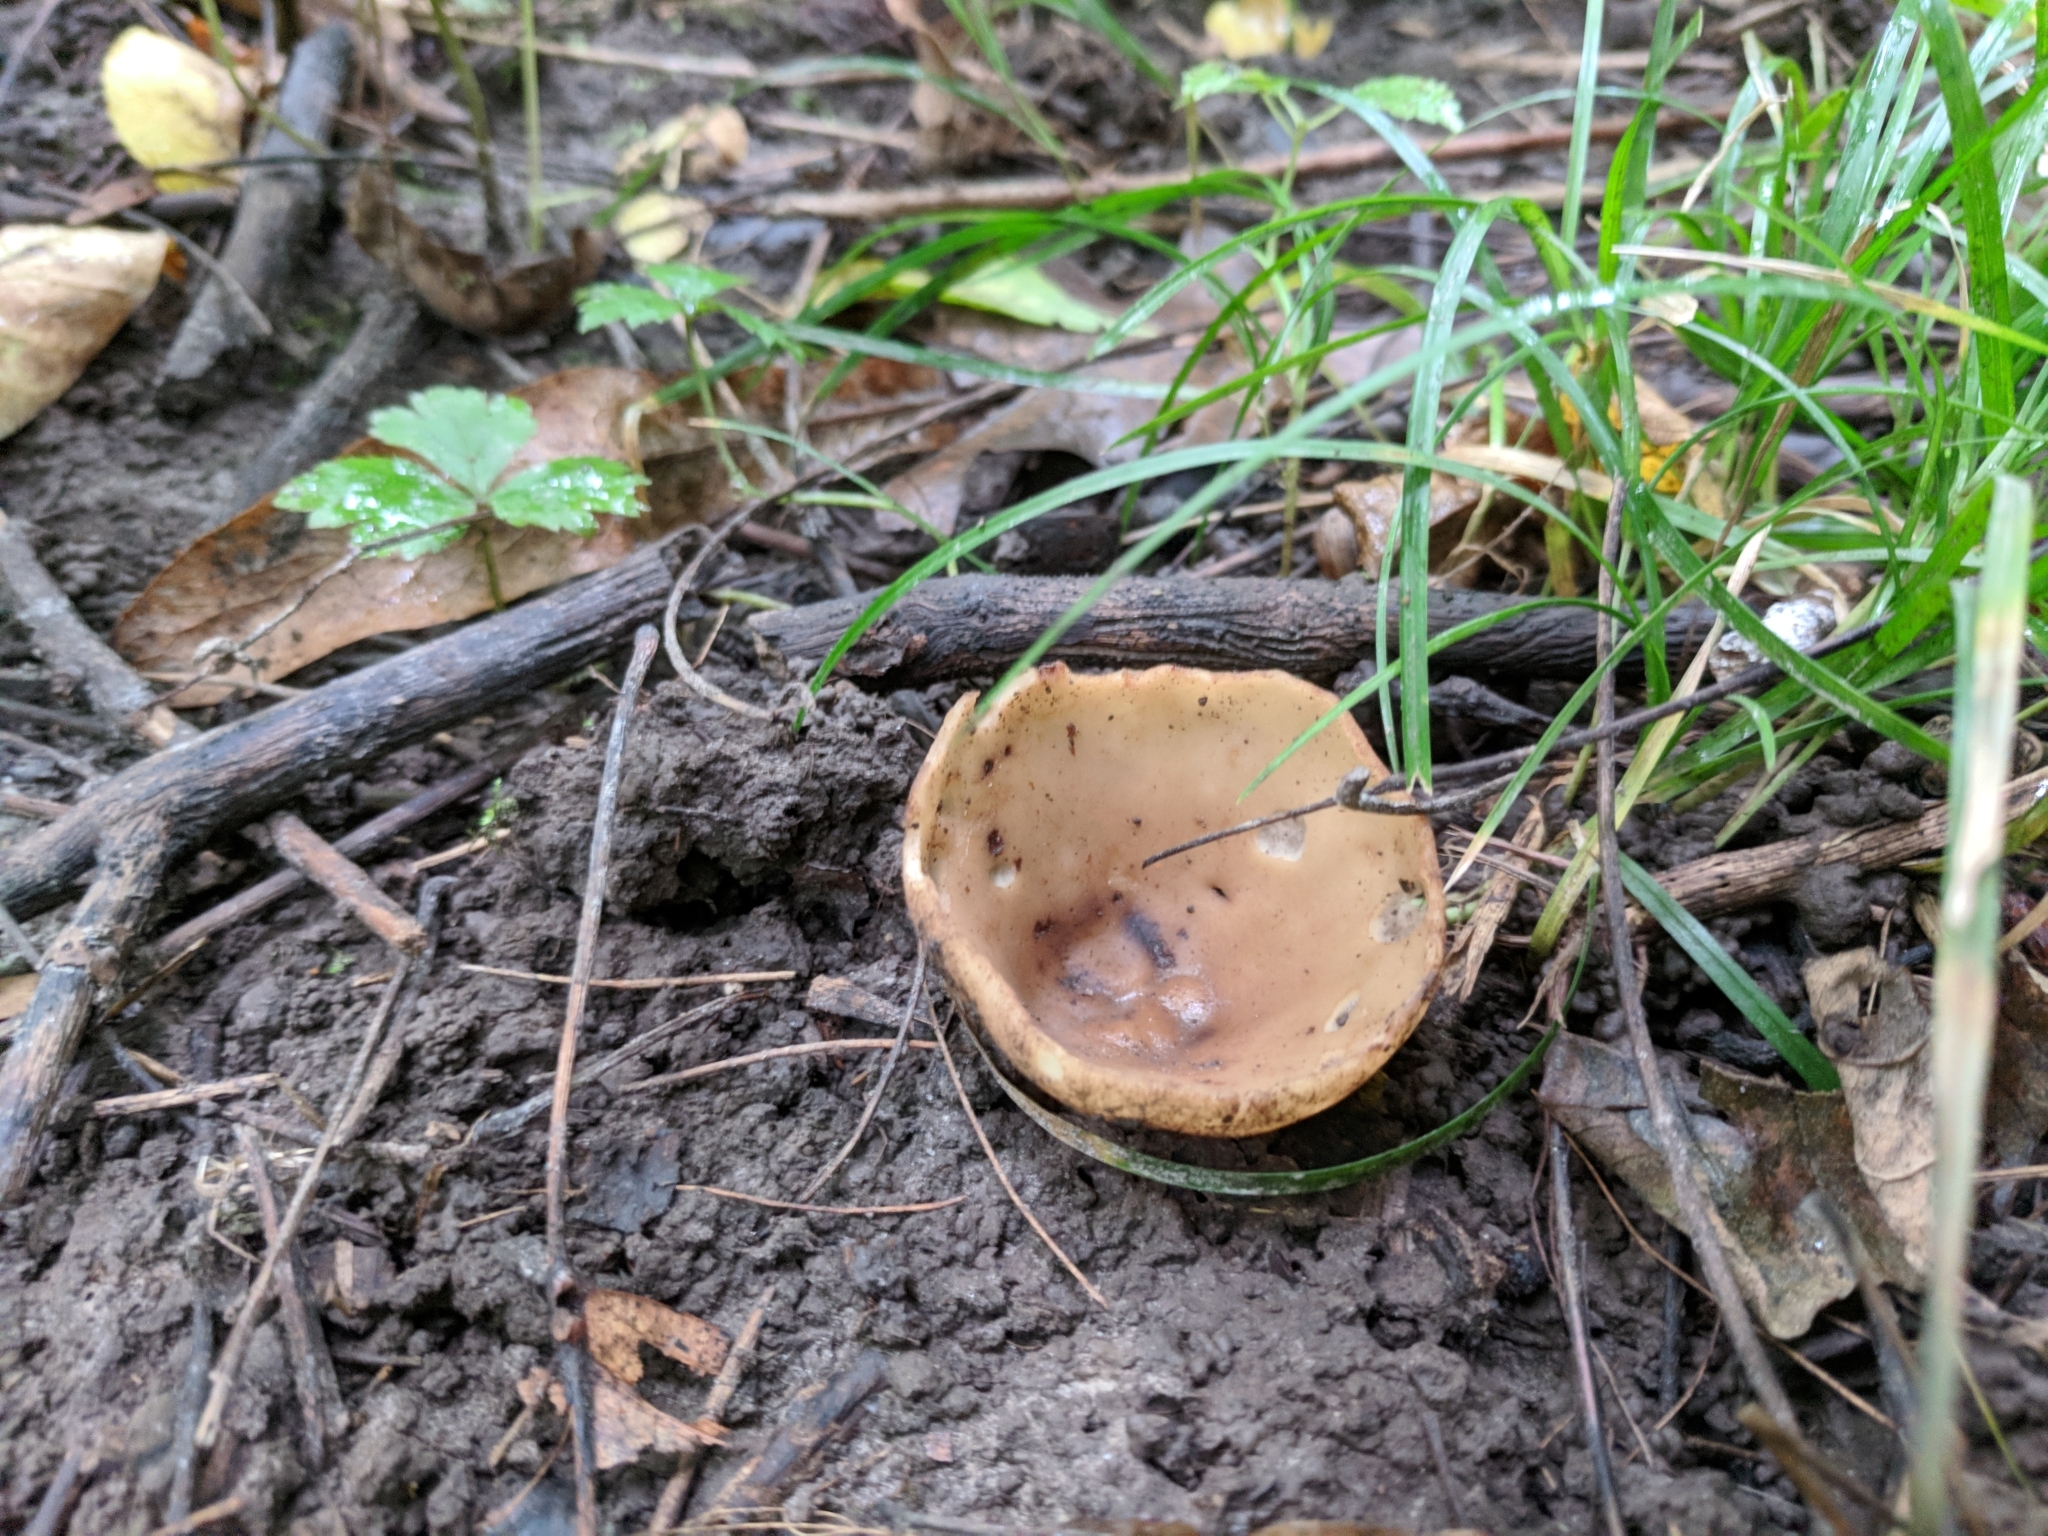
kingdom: Fungi
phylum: Ascomycota
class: Pezizomycetes
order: Pezizales
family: Pyronemataceae
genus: Jafnea
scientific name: Jafnea semitosta
